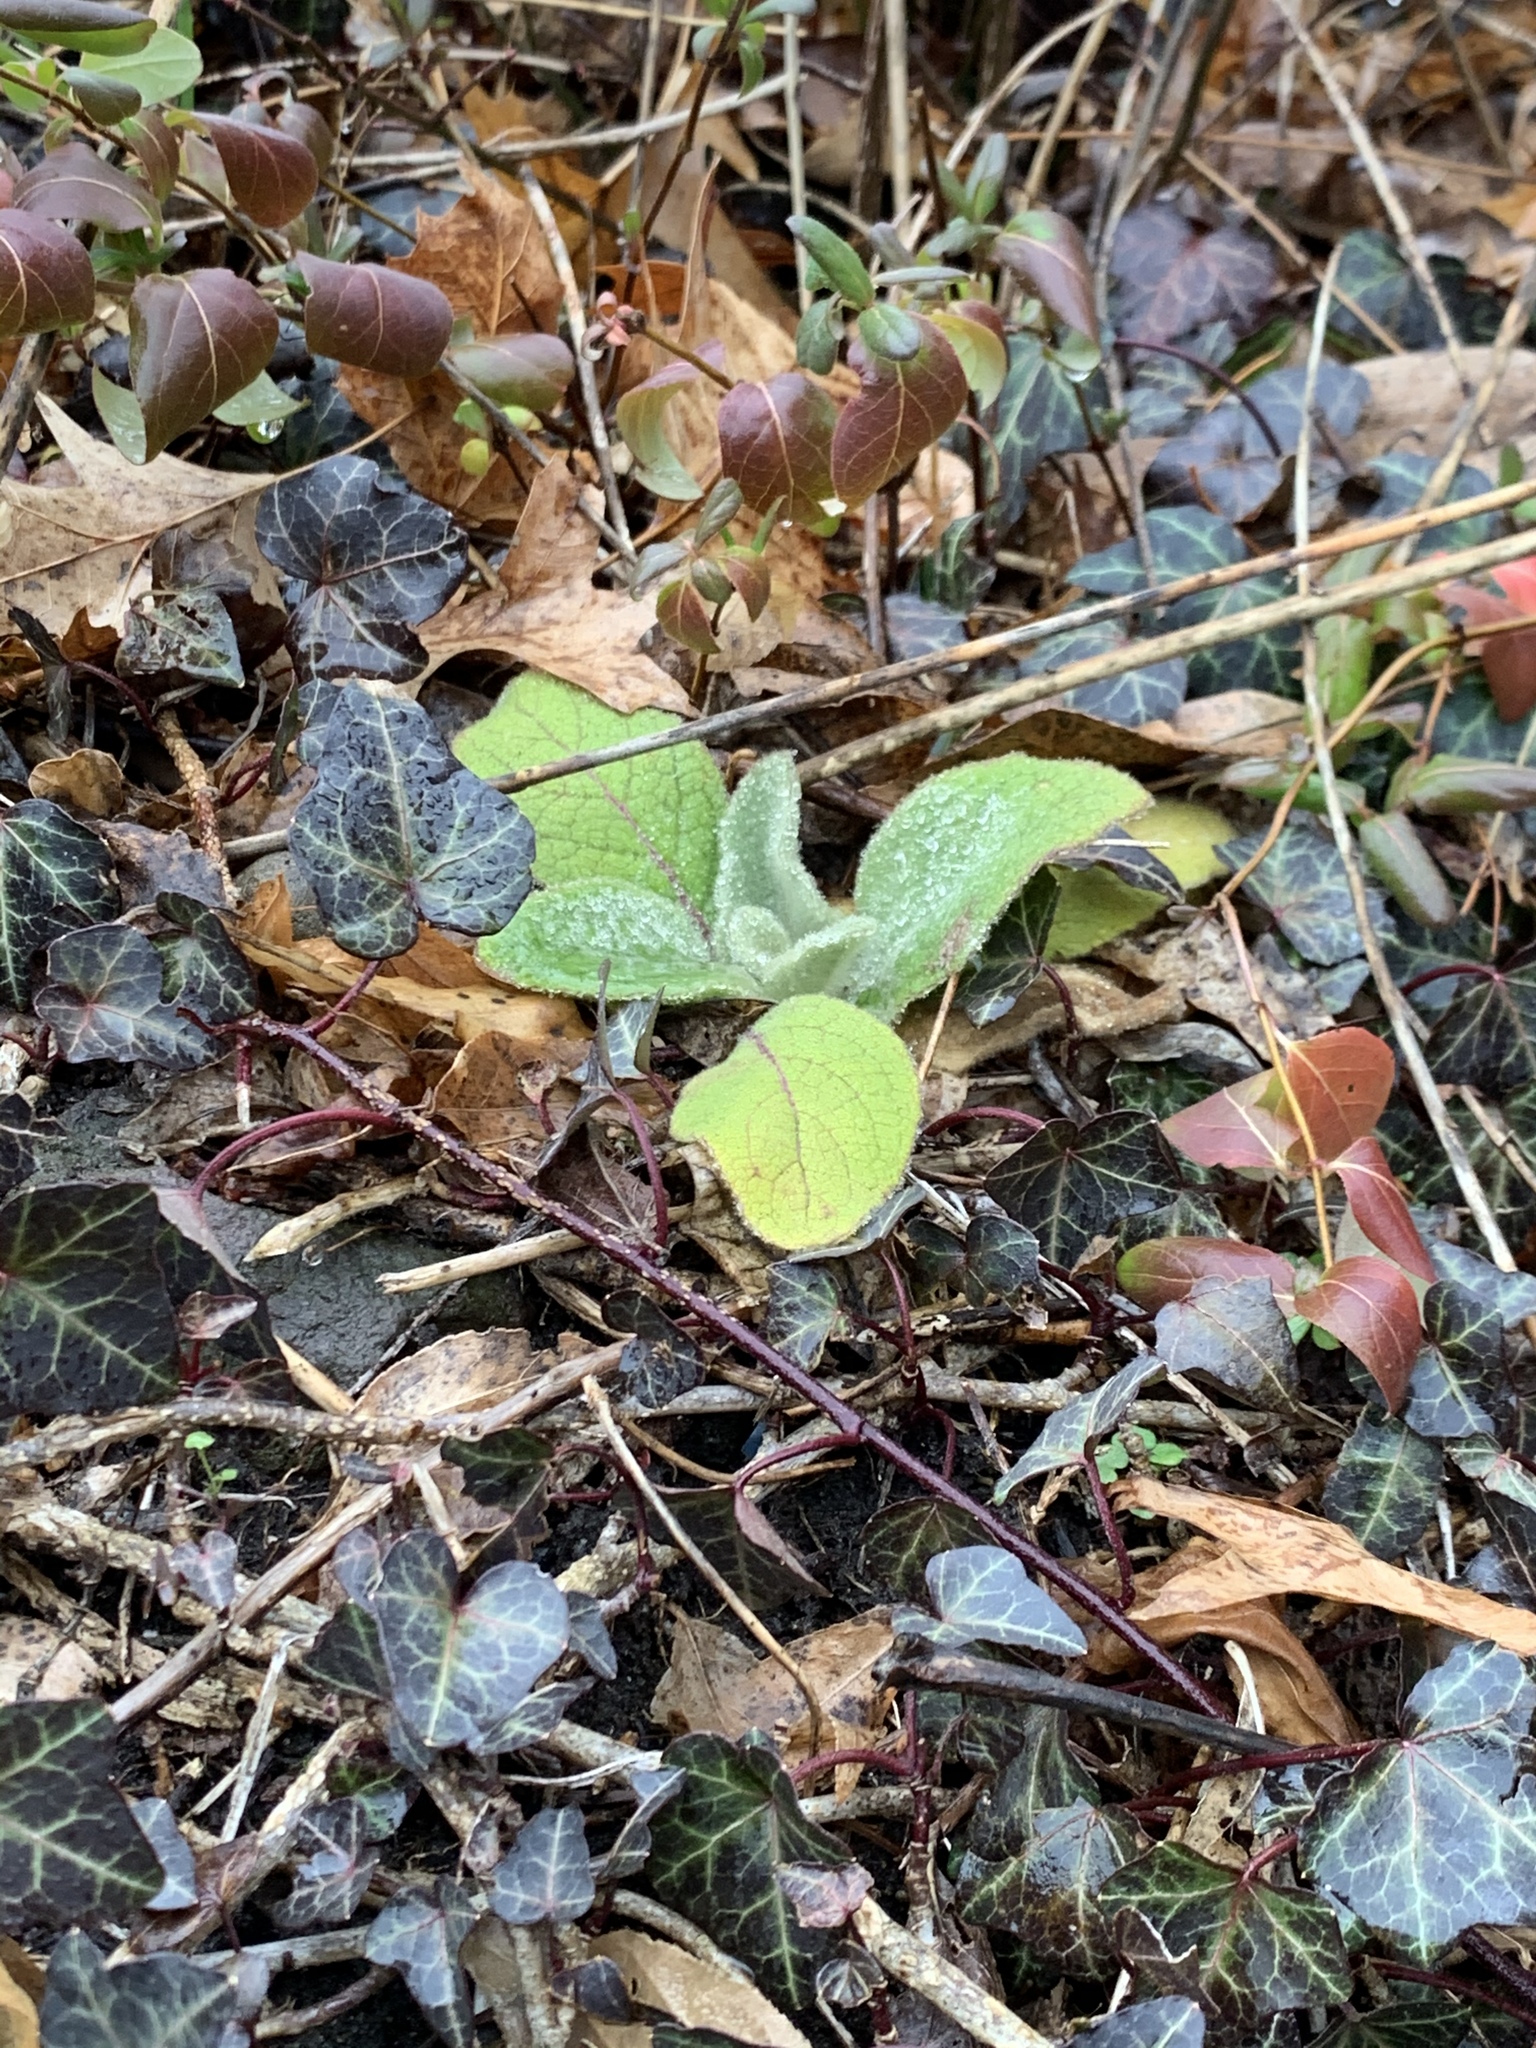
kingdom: Plantae
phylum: Tracheophyta
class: Magnoliopsida
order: Lamiales
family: Scrophulariaceae
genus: Verbascum
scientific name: Verbascum thapsus
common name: Common mullein
